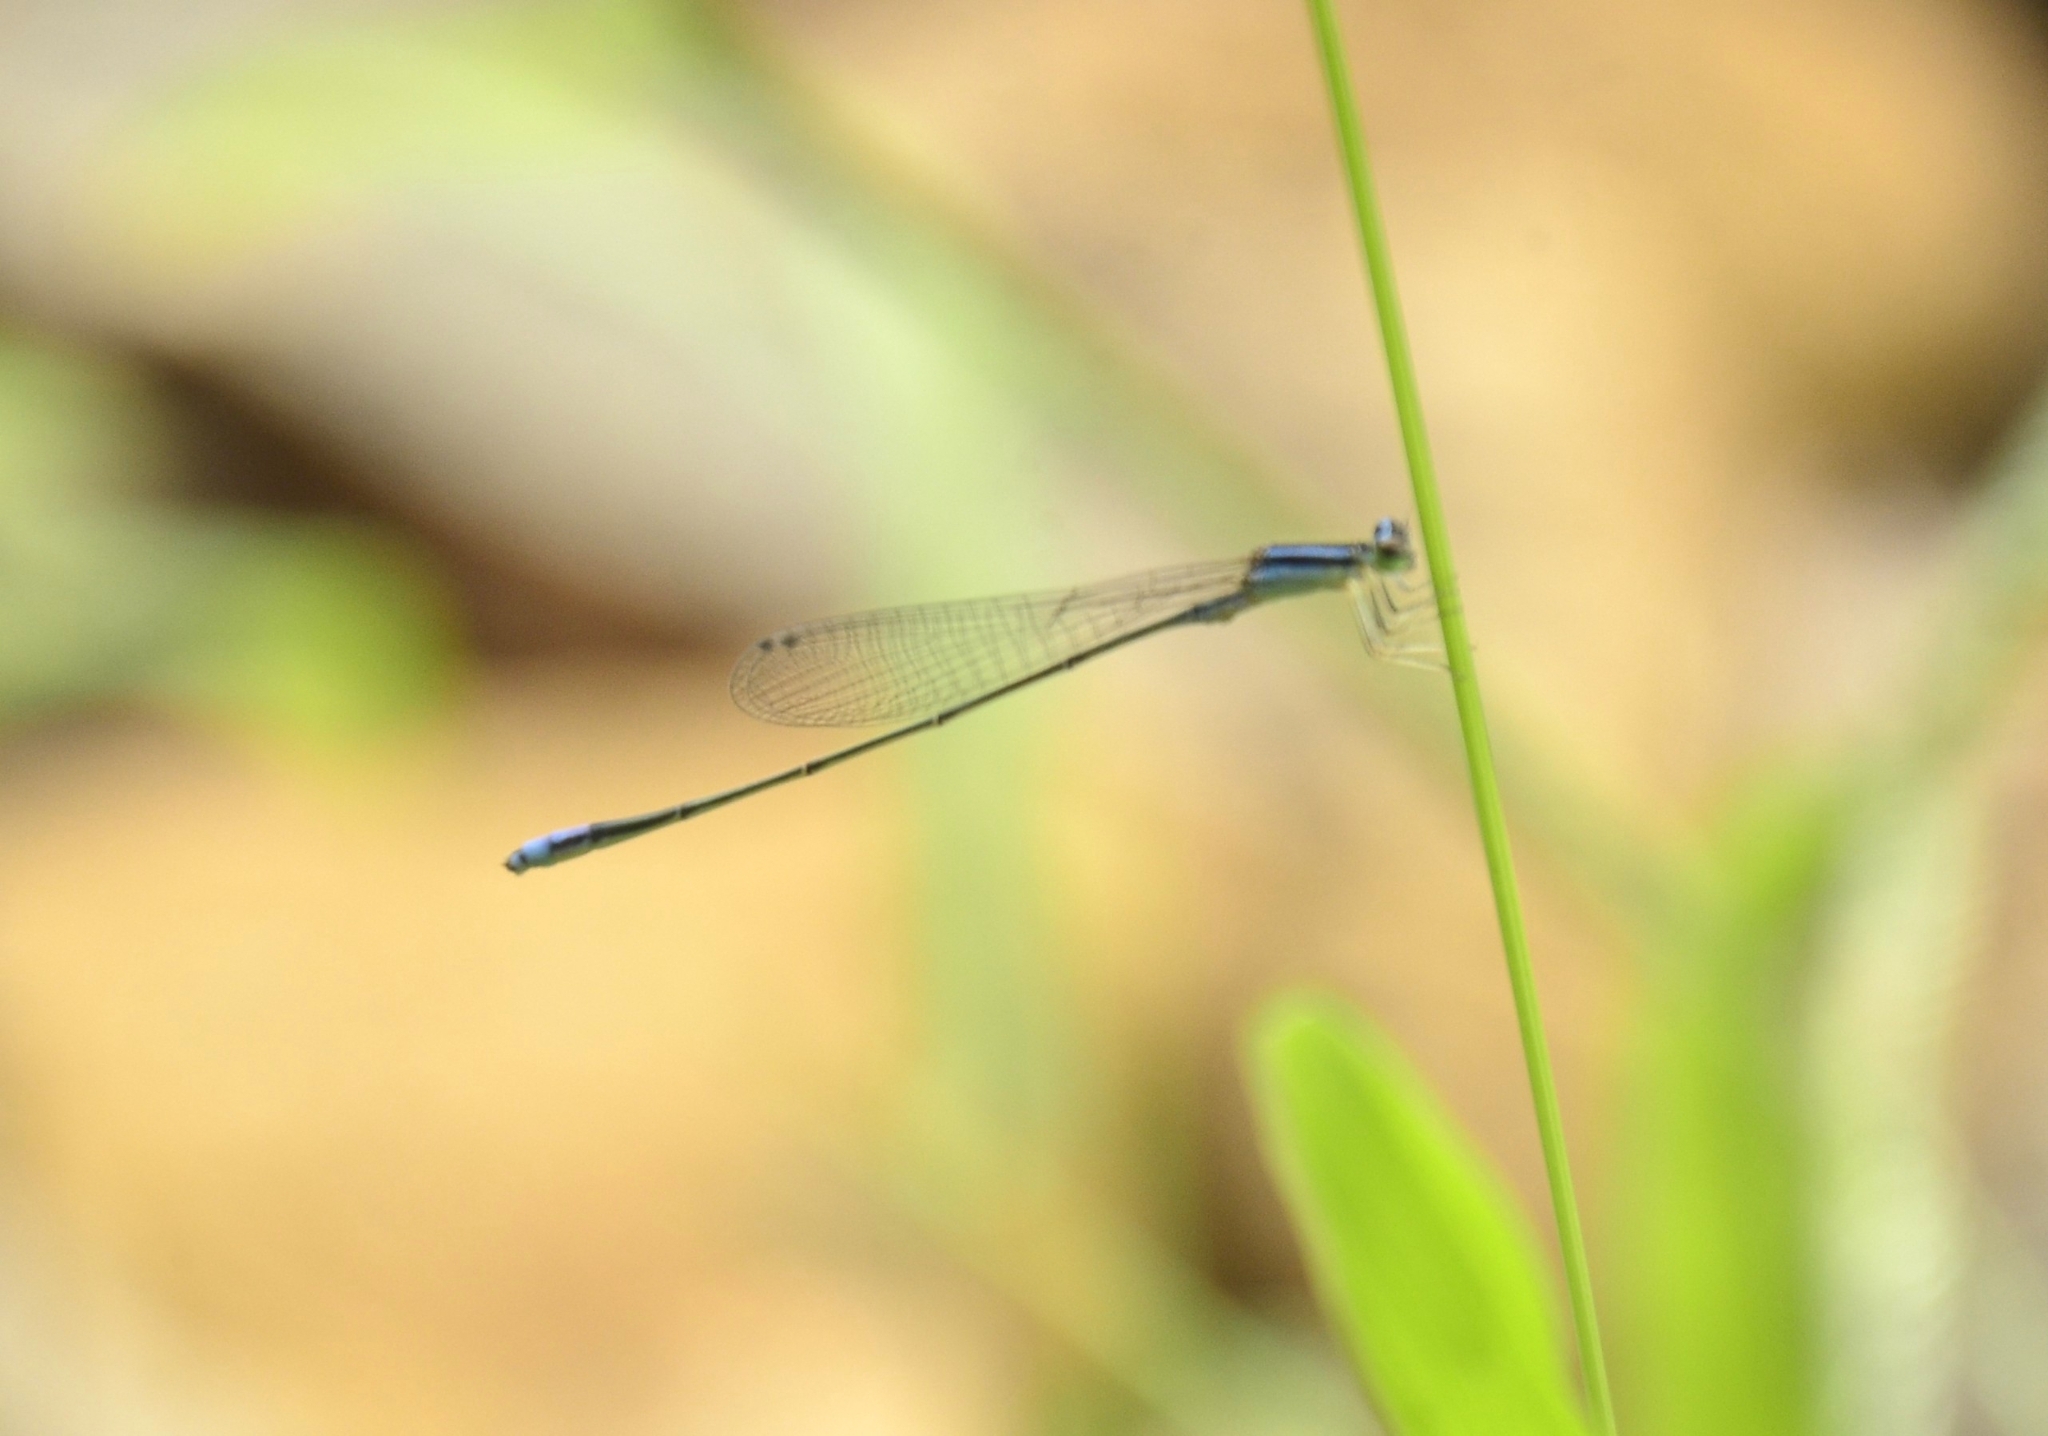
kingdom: Animalia
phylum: Arthropoda
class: Insecta
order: Odonata
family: Coenagrionidae
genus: Aciagrion
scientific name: Aciagrion approximans
